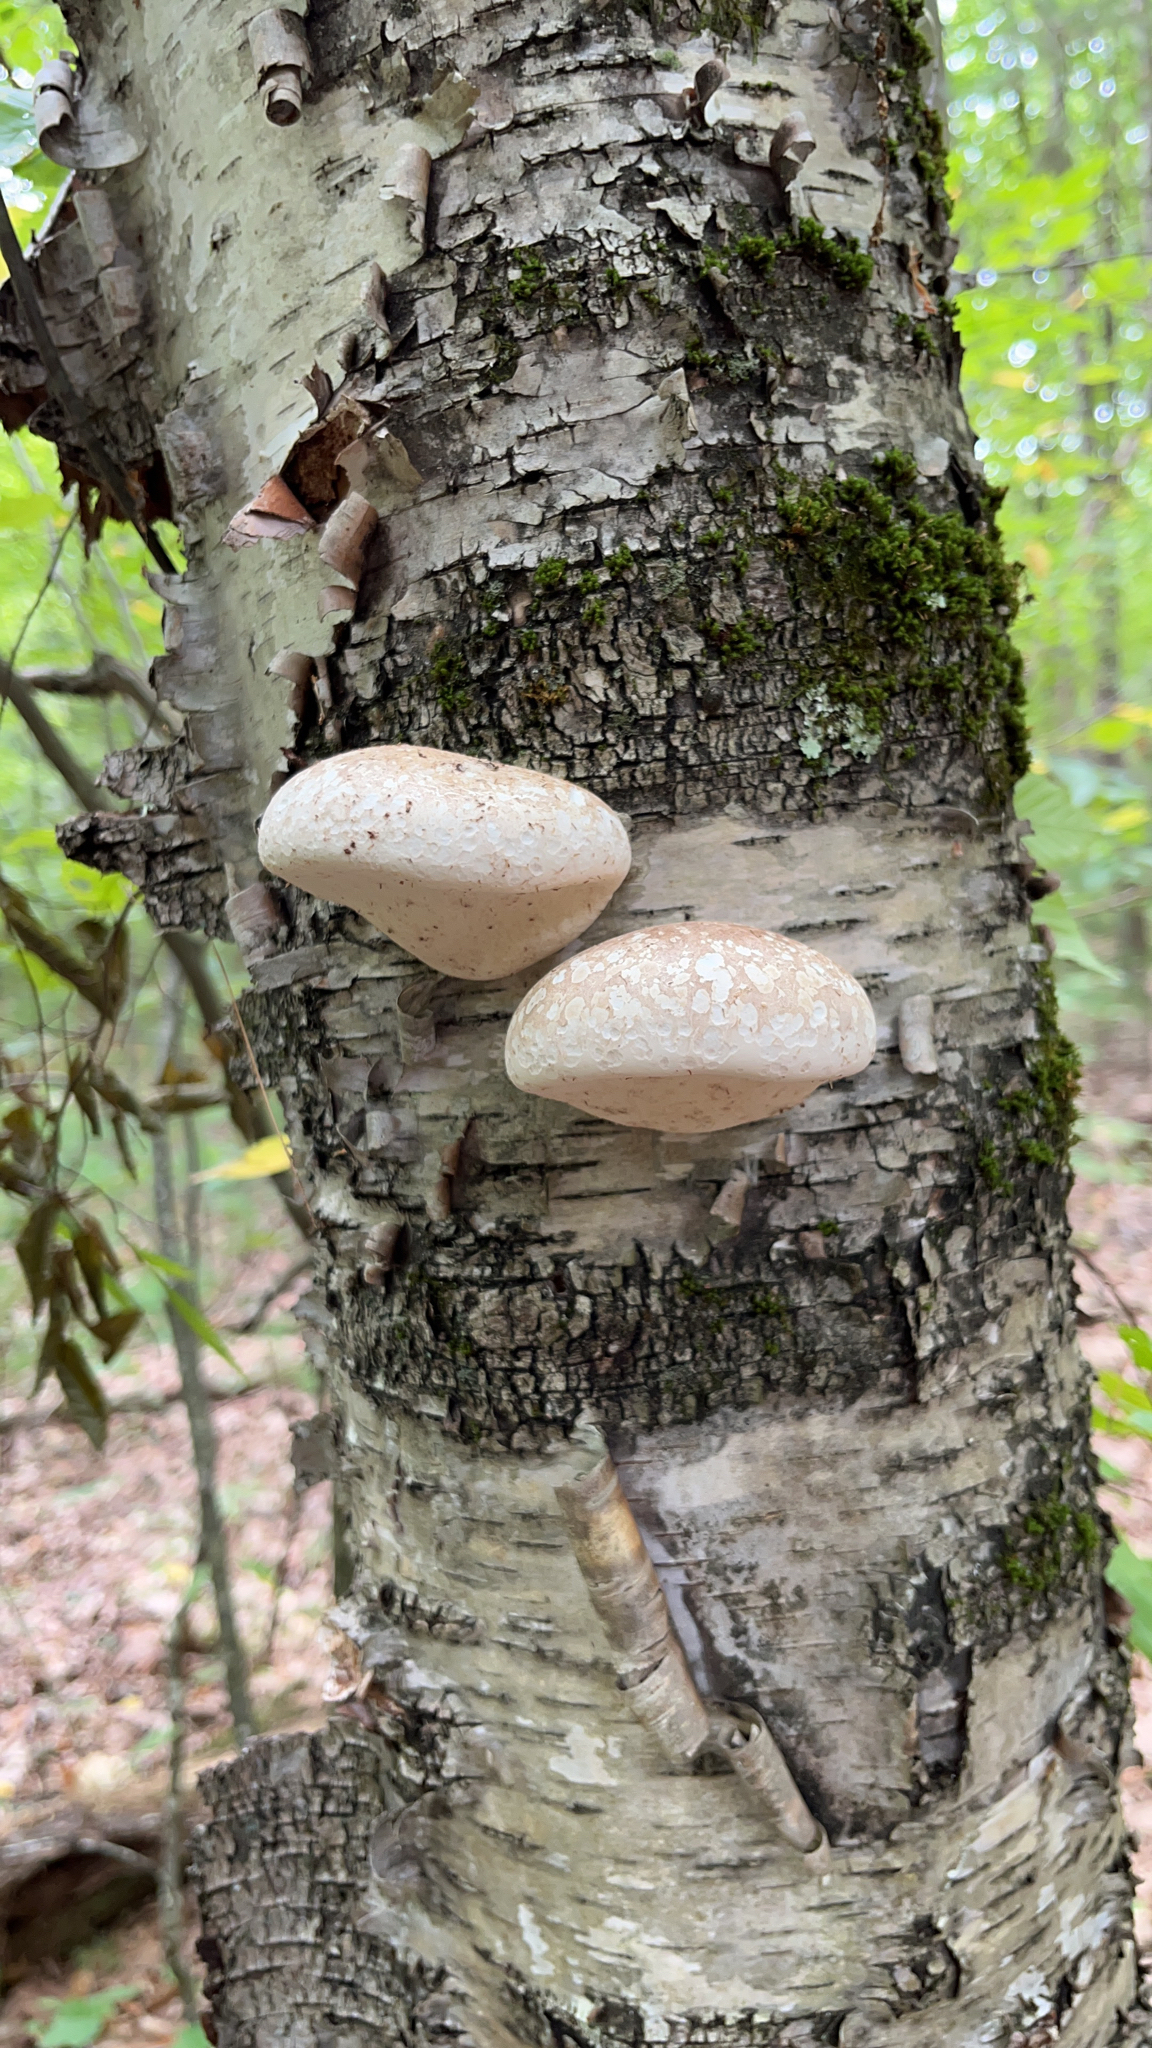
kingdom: Fungi
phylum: Basidiomycota
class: Agaricomycetes
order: Polyporales
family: Fomitopsidaceae
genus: Fomitopsis
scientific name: Fomitopsis betulina
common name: Birch polypore
